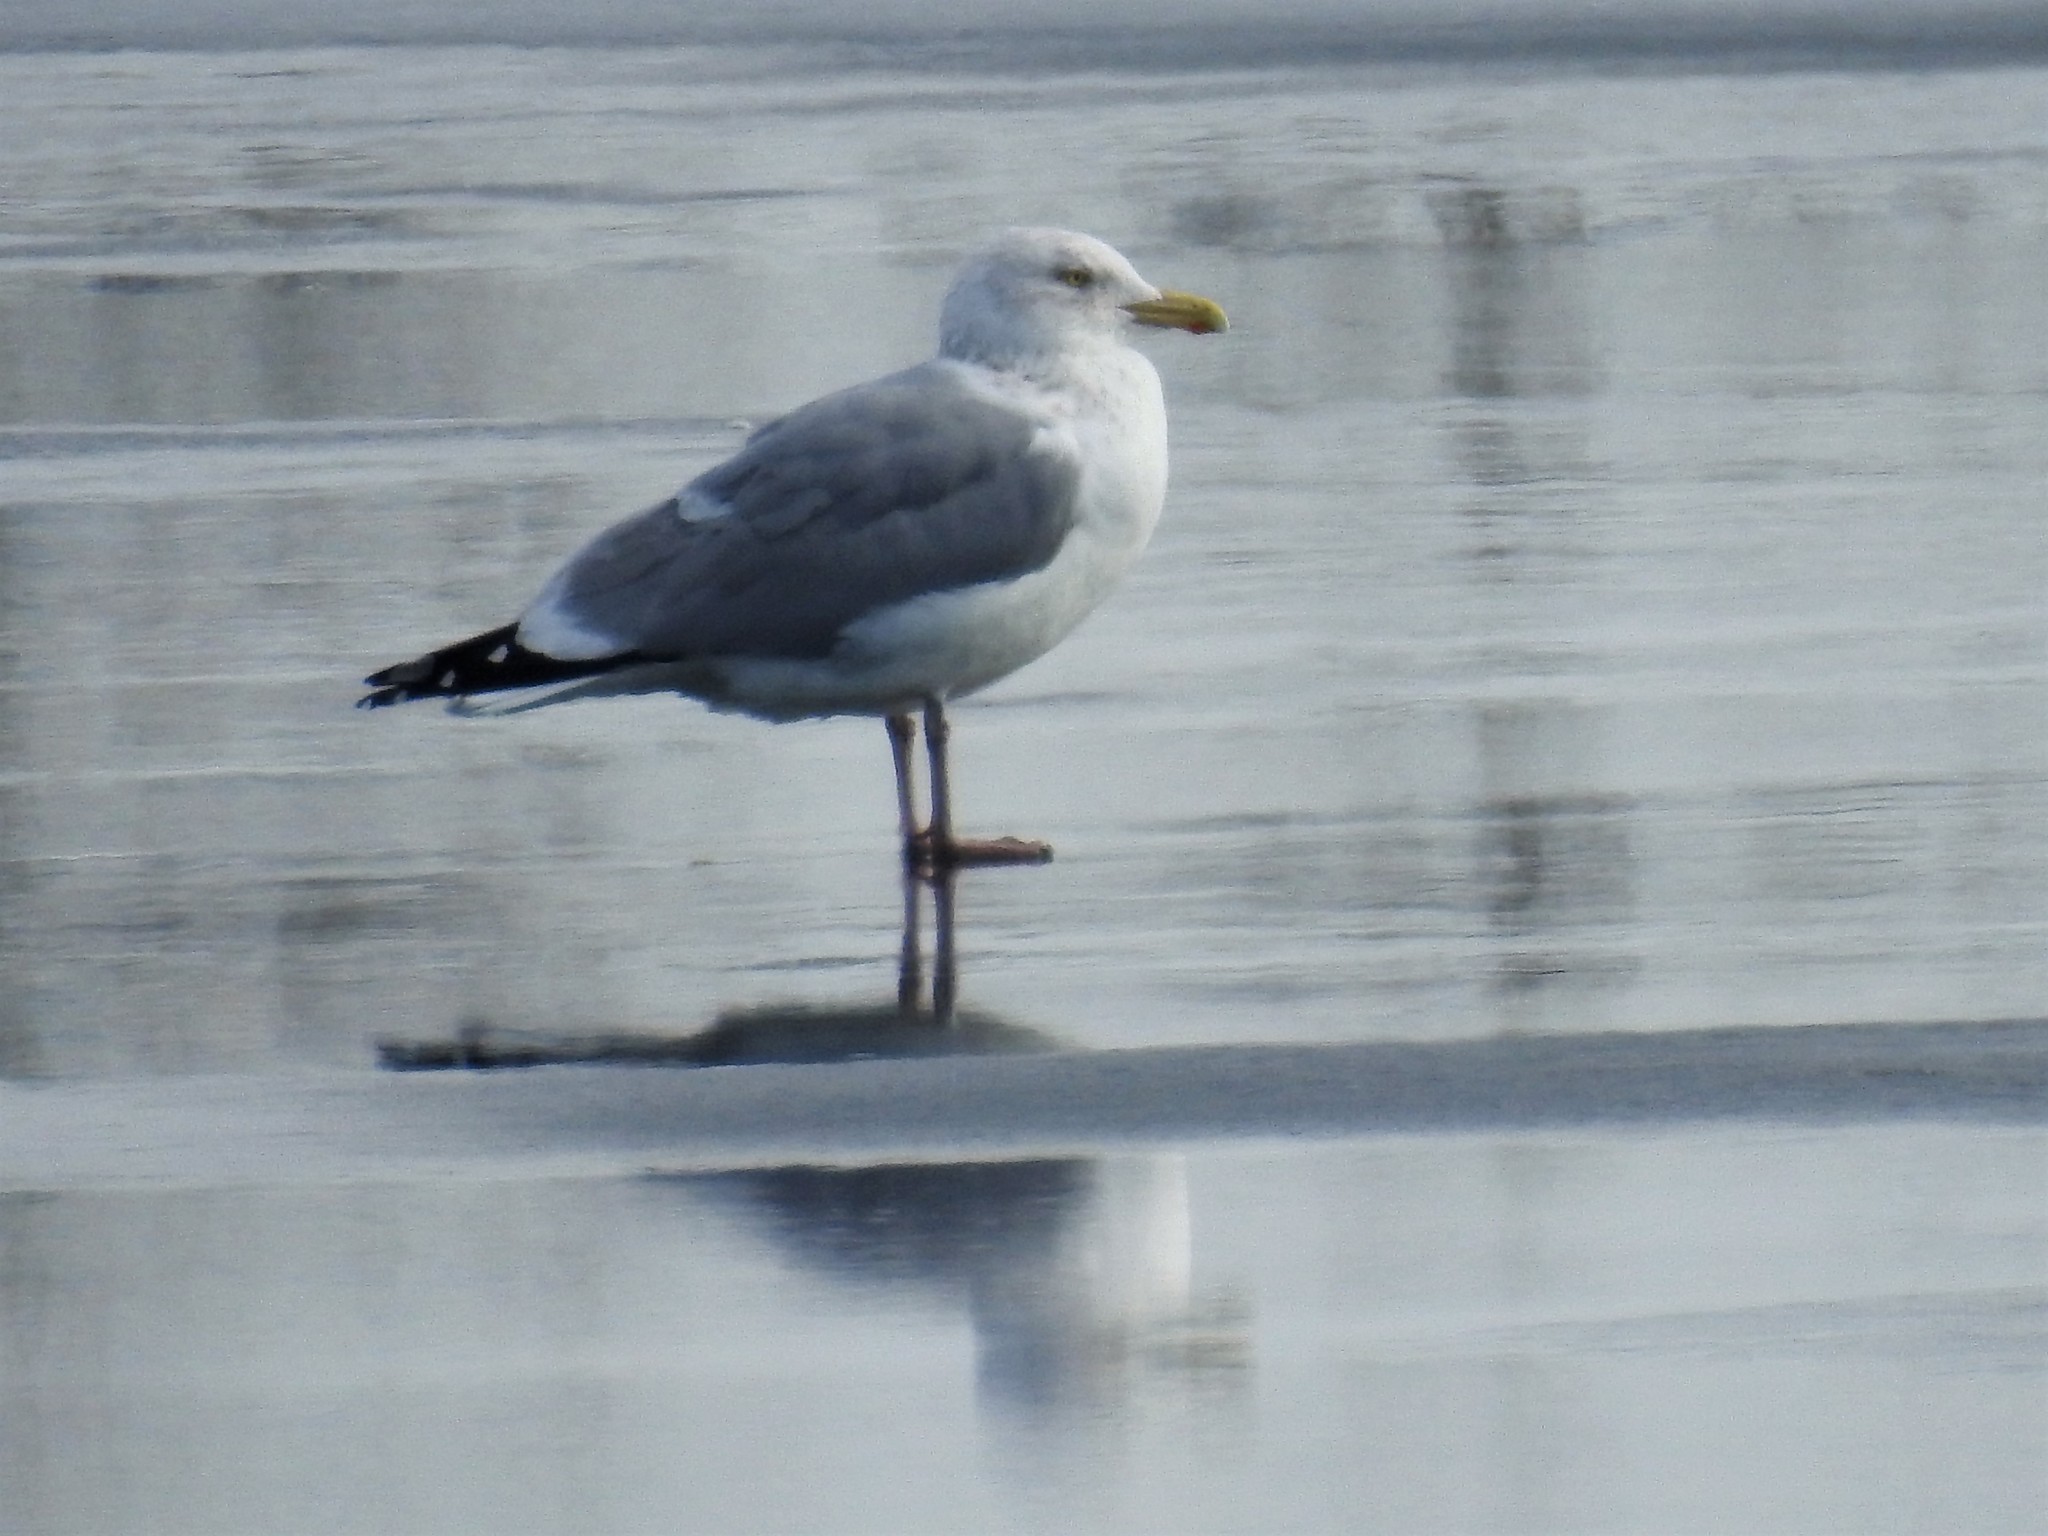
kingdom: Animalia
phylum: Chordata
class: Aves
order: Charadriiformes
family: Laridae
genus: Larus
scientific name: Larus argentatus
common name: Herring gull
